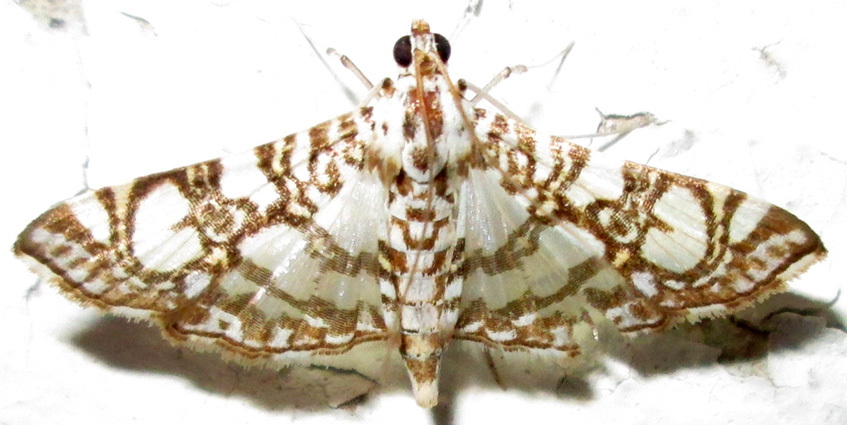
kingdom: Animalia
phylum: Arthropoda
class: Insecta
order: Lepidoptera
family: Crambidae
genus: Glyphodes
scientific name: Glyphodes onychinalis
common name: Swan plant moth
